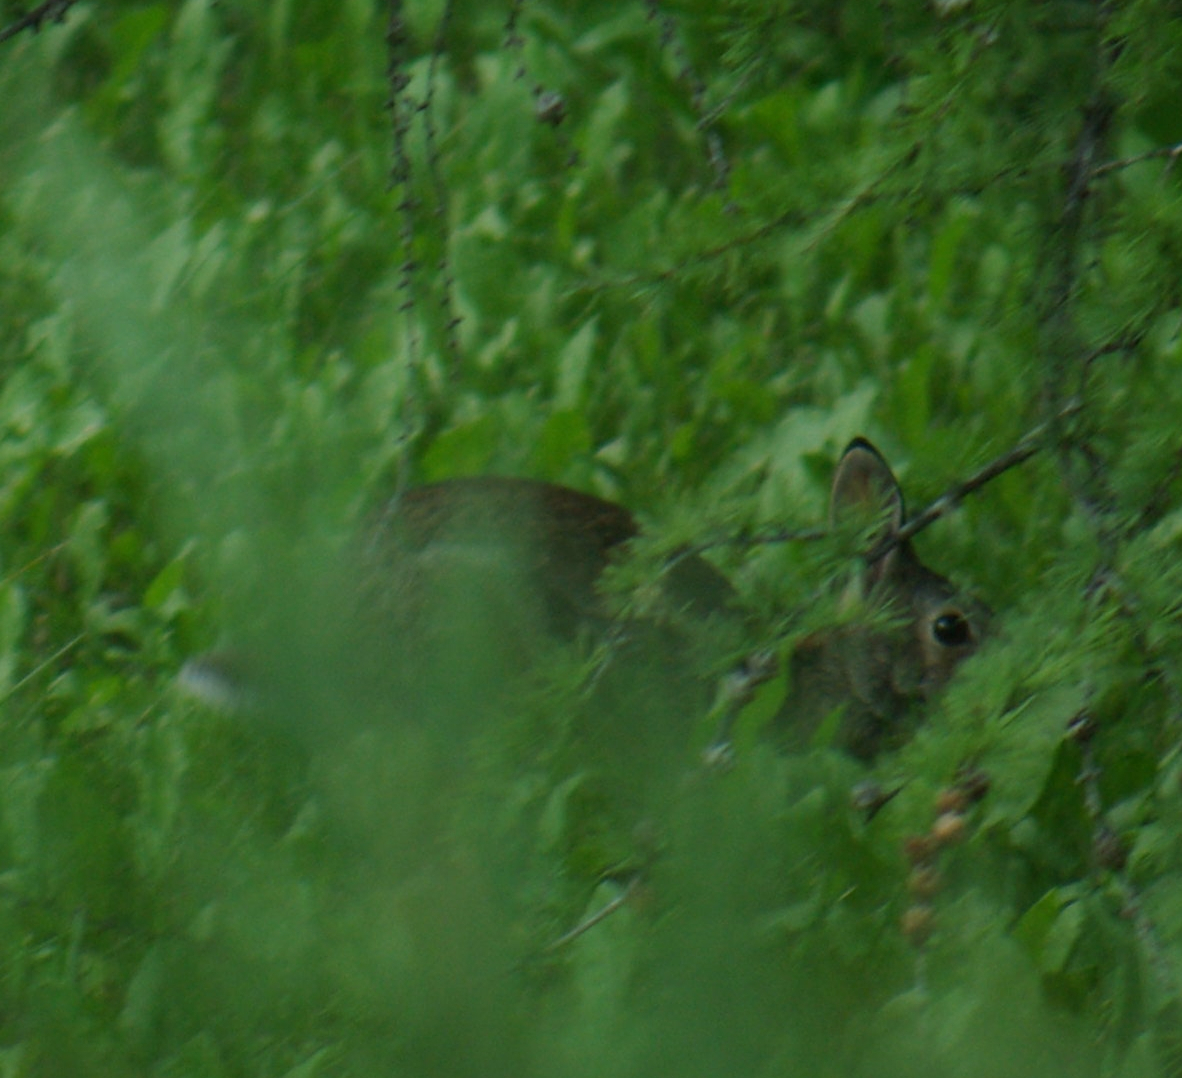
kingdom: Animalia
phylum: Chordata
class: Mammalia
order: Lagomorpha
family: Leporidae
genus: Sylvilagus
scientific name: Sylvilagus floridanus
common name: Eastern cottontail
